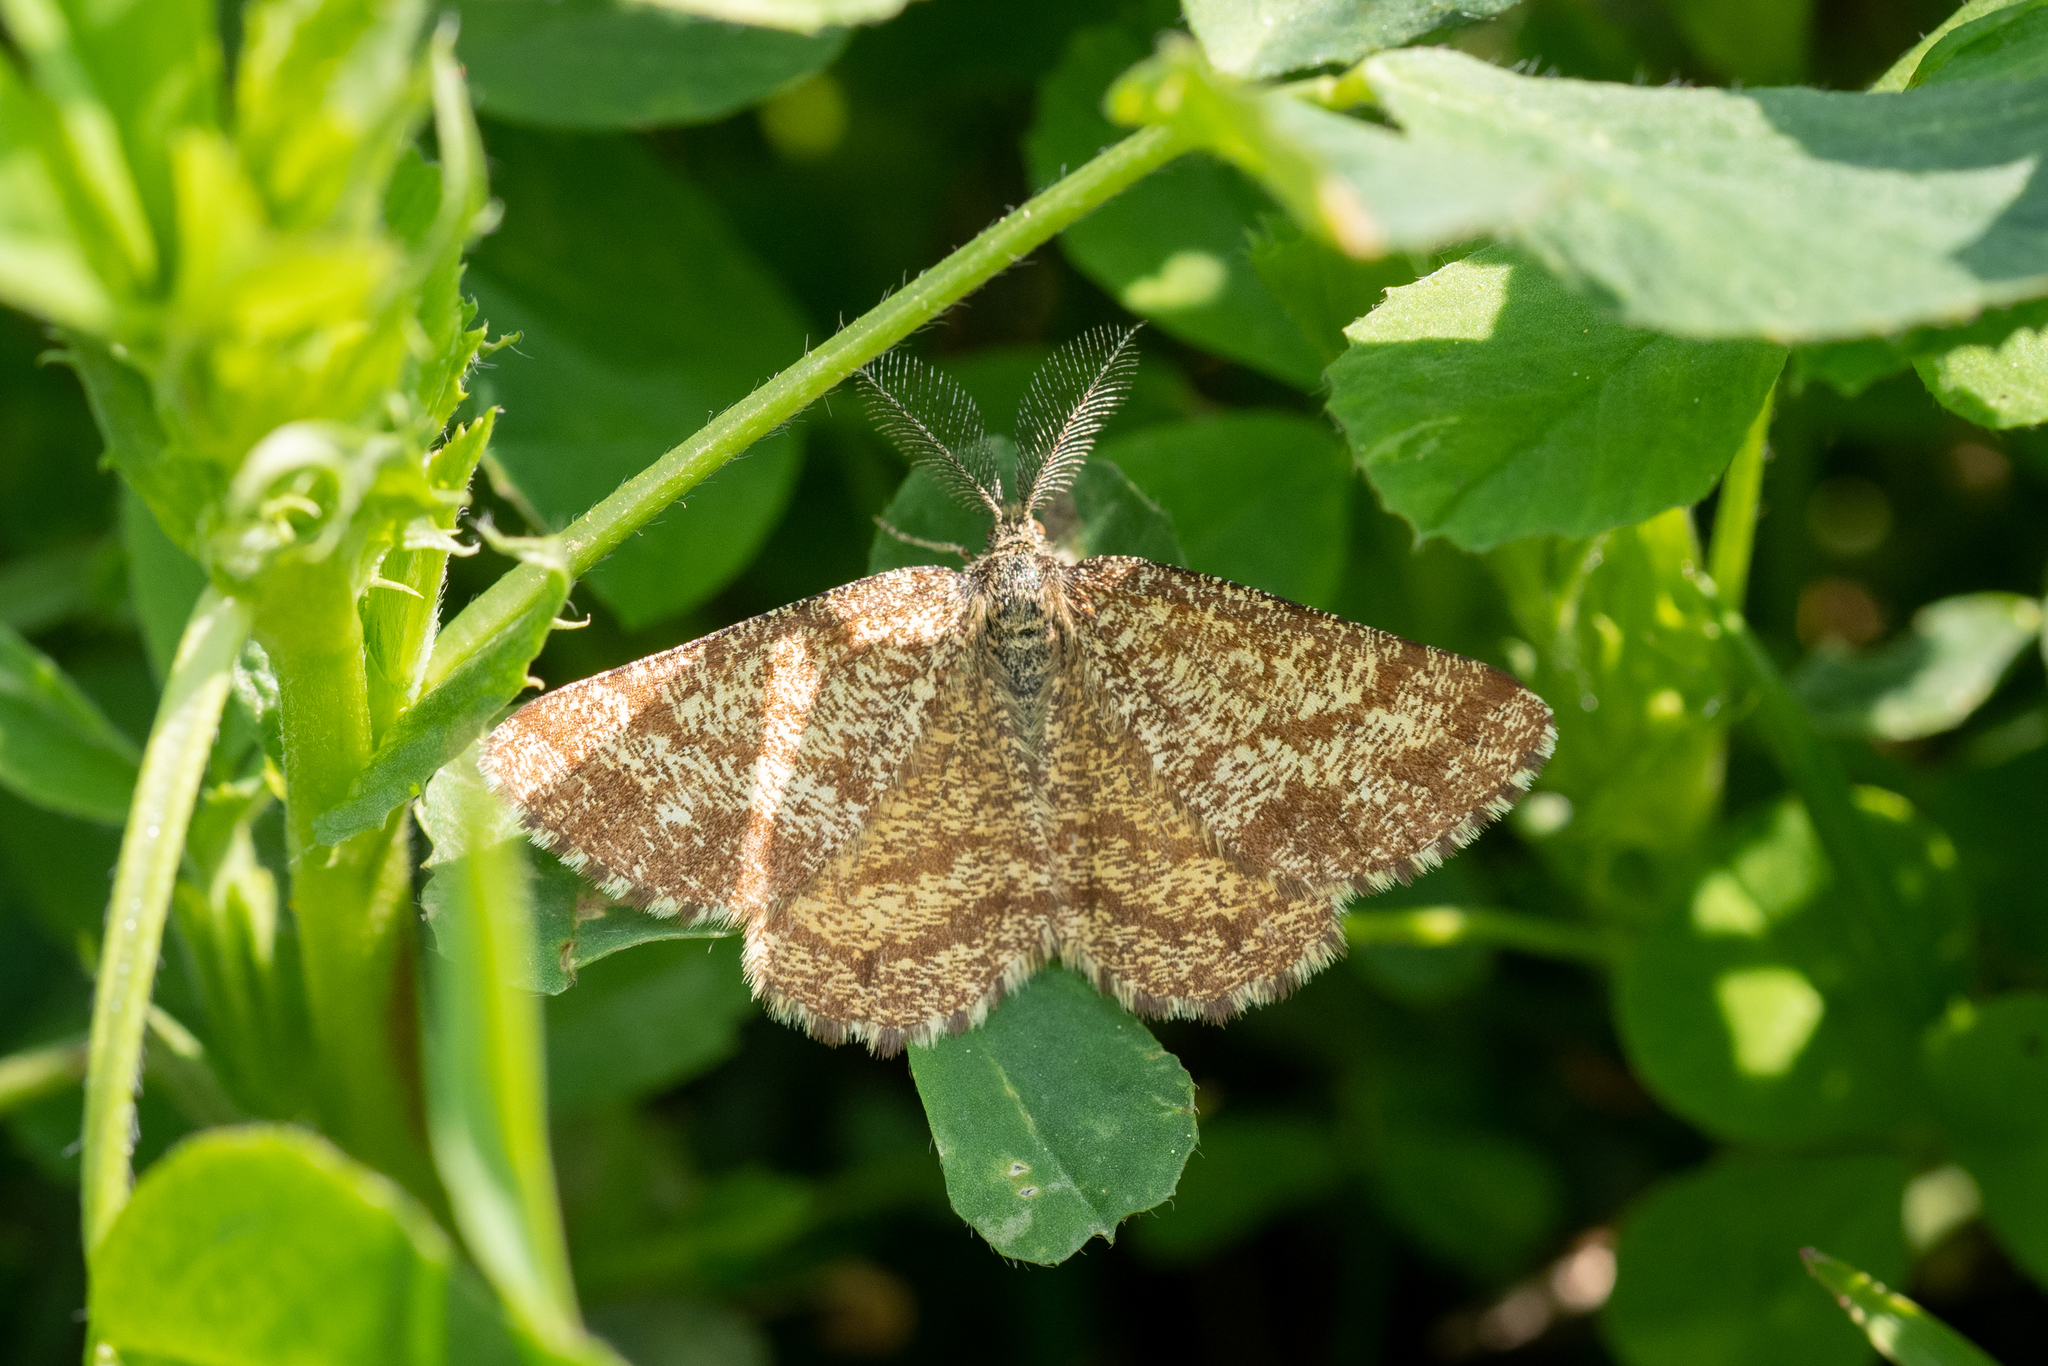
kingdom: Animalia
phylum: Arthropoda
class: Insecta
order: Lepidoptera
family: Geometridae
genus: Ematurga
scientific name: Ematurga atomaria
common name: Common heath
